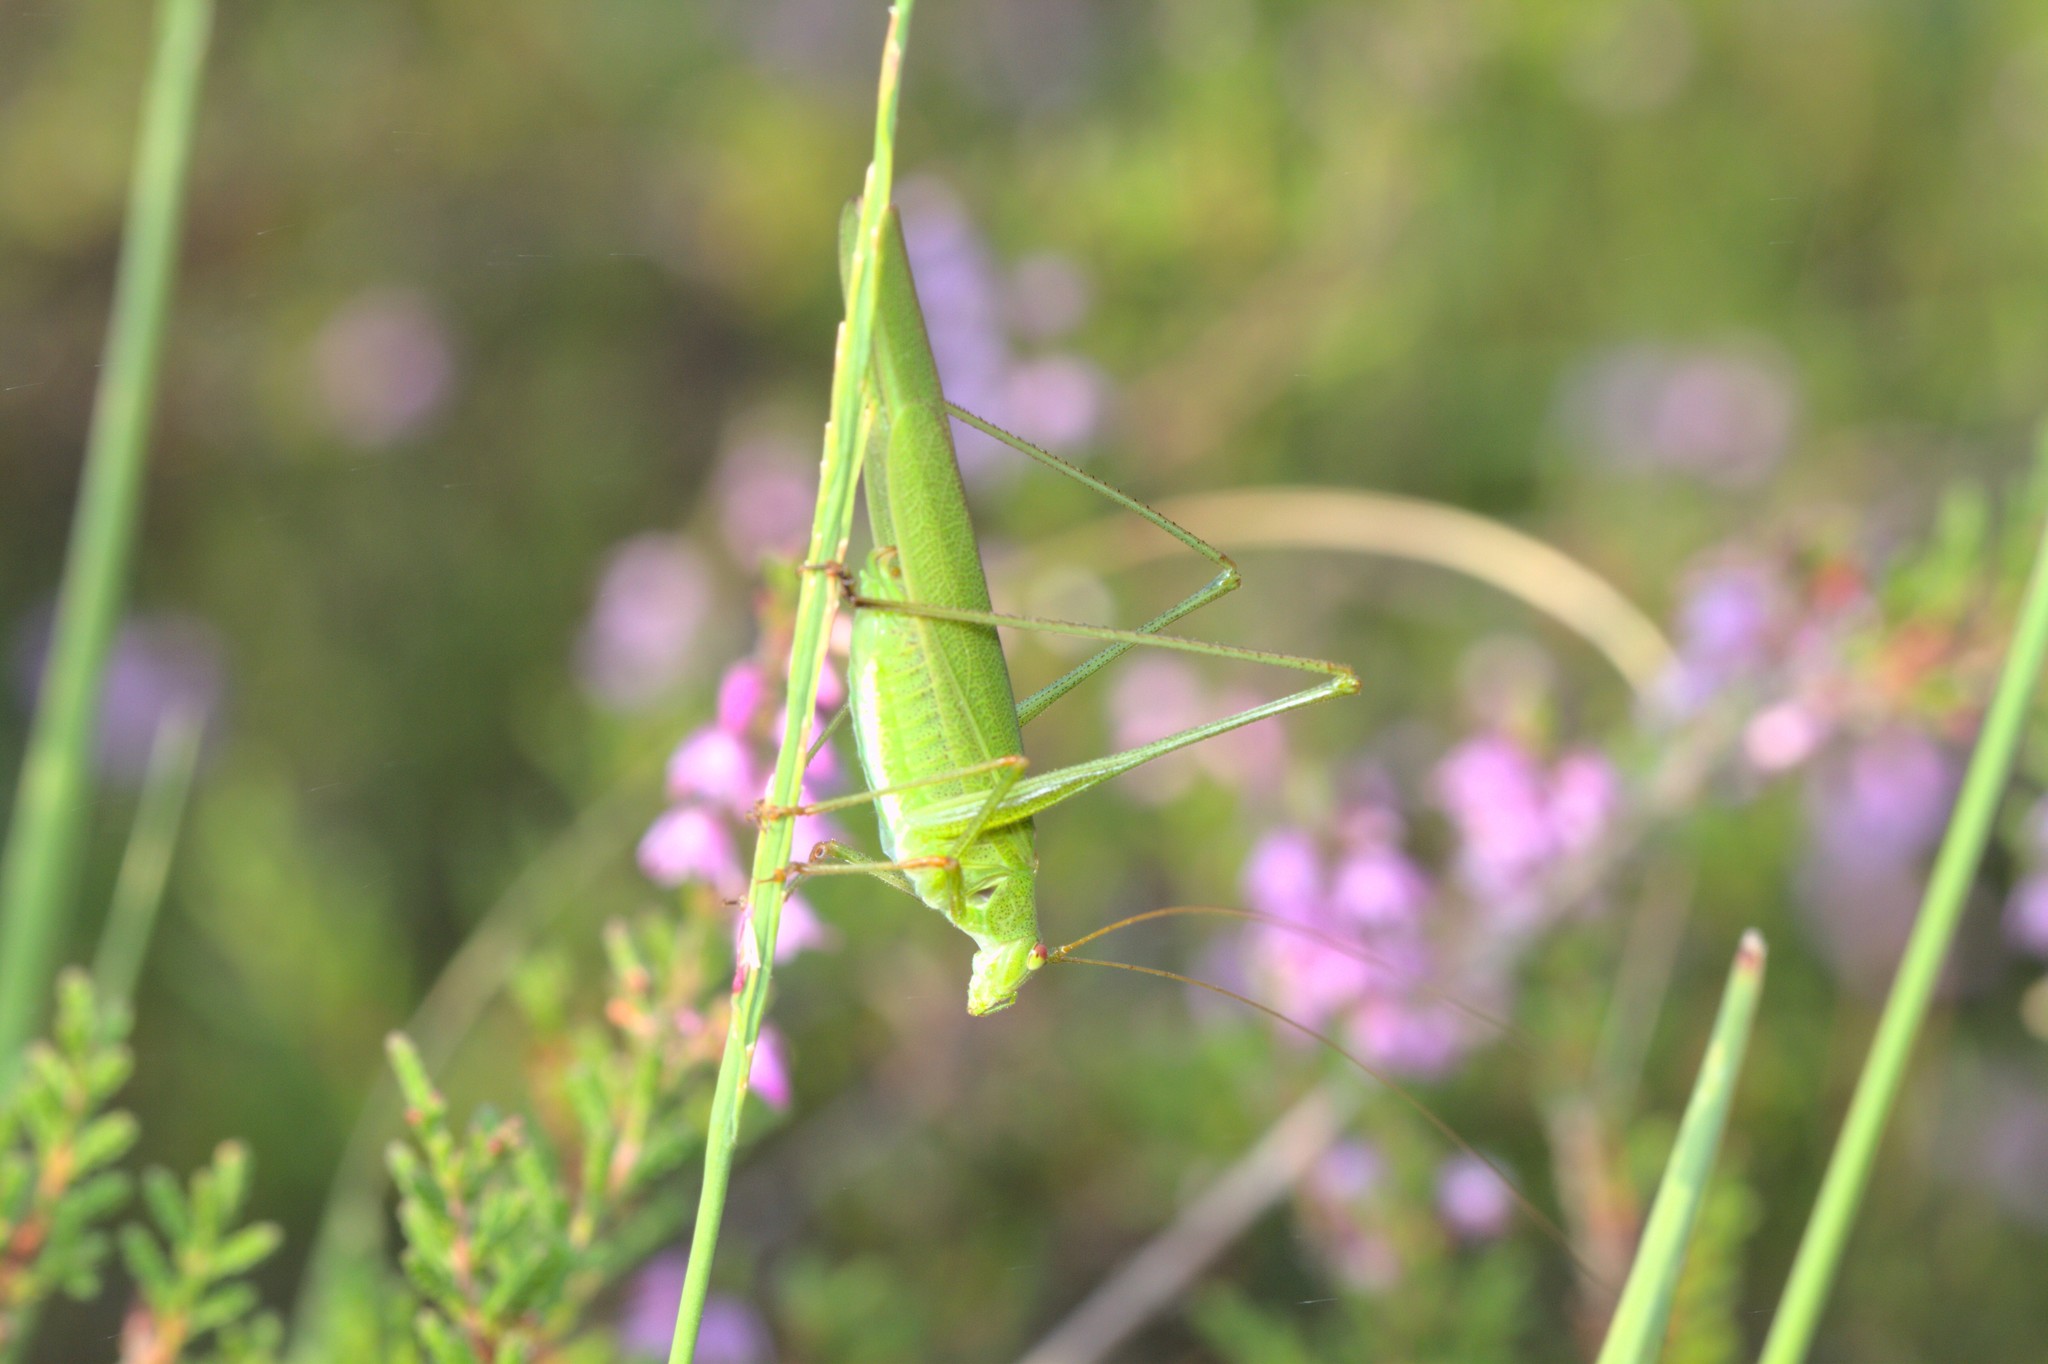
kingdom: Animalia
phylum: Arthropoda
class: Insecta
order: Orthoptera
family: Tettigoniidae
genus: Phaneroptera
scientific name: Phaneroptera falcata
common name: Sickle-bearing bush-cricket
